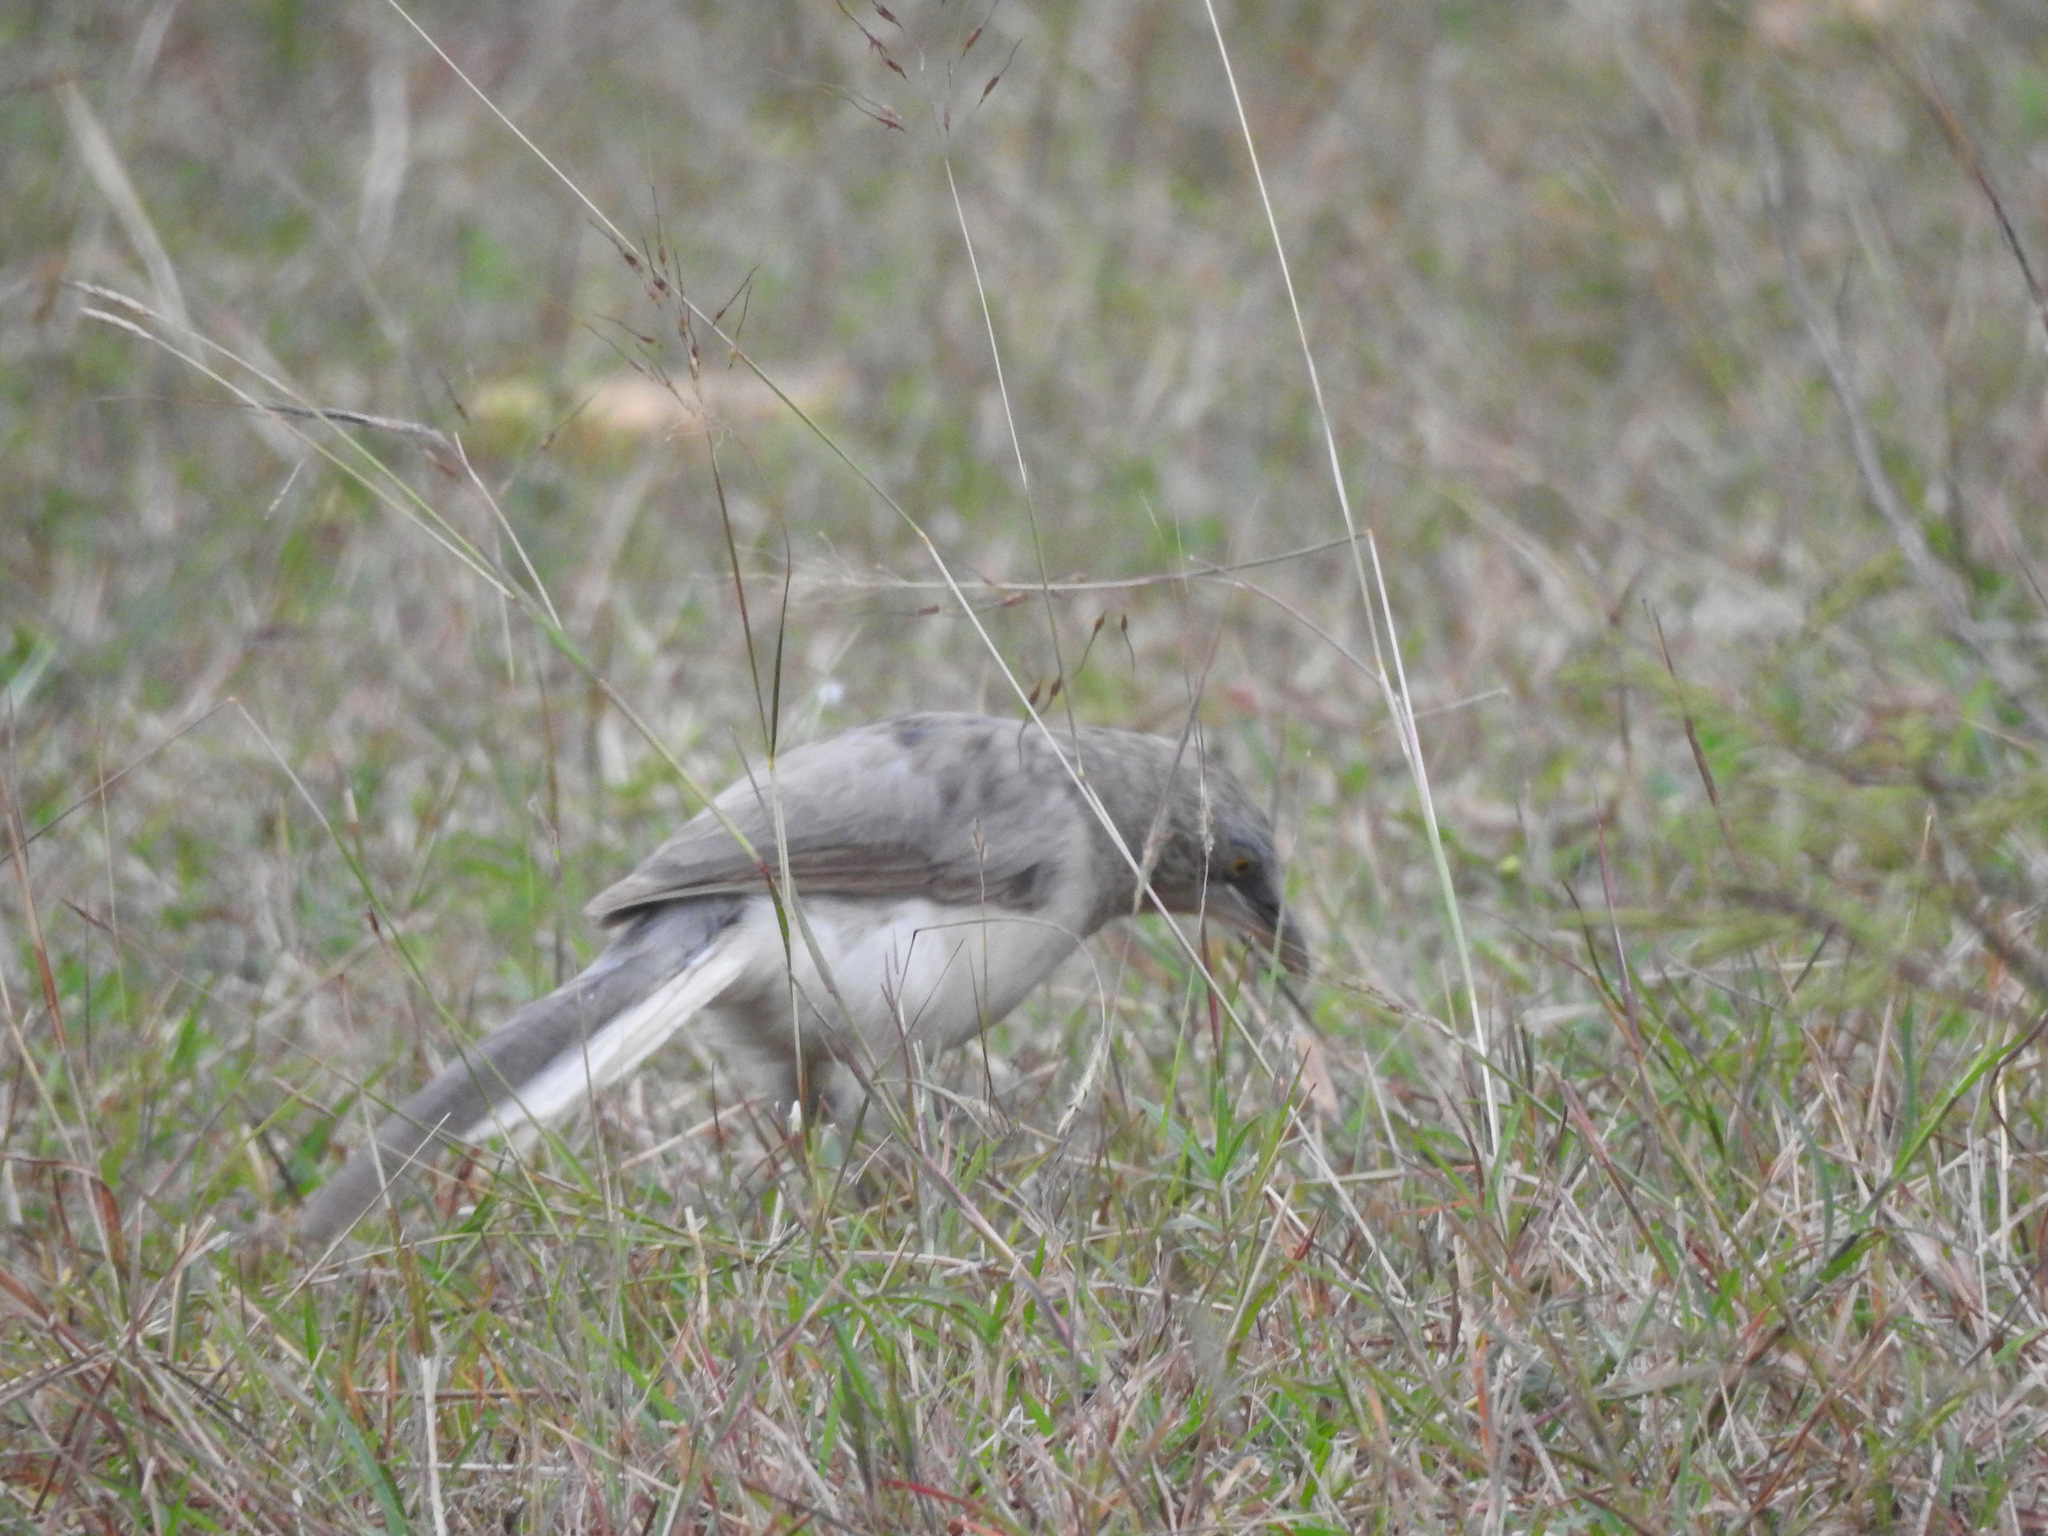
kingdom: Animalia
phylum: Chordata
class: Aves
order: Passeriformes
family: Leiothrichidae
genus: Turdoides
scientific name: Turdoides malcolmi
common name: Large grey babbler
